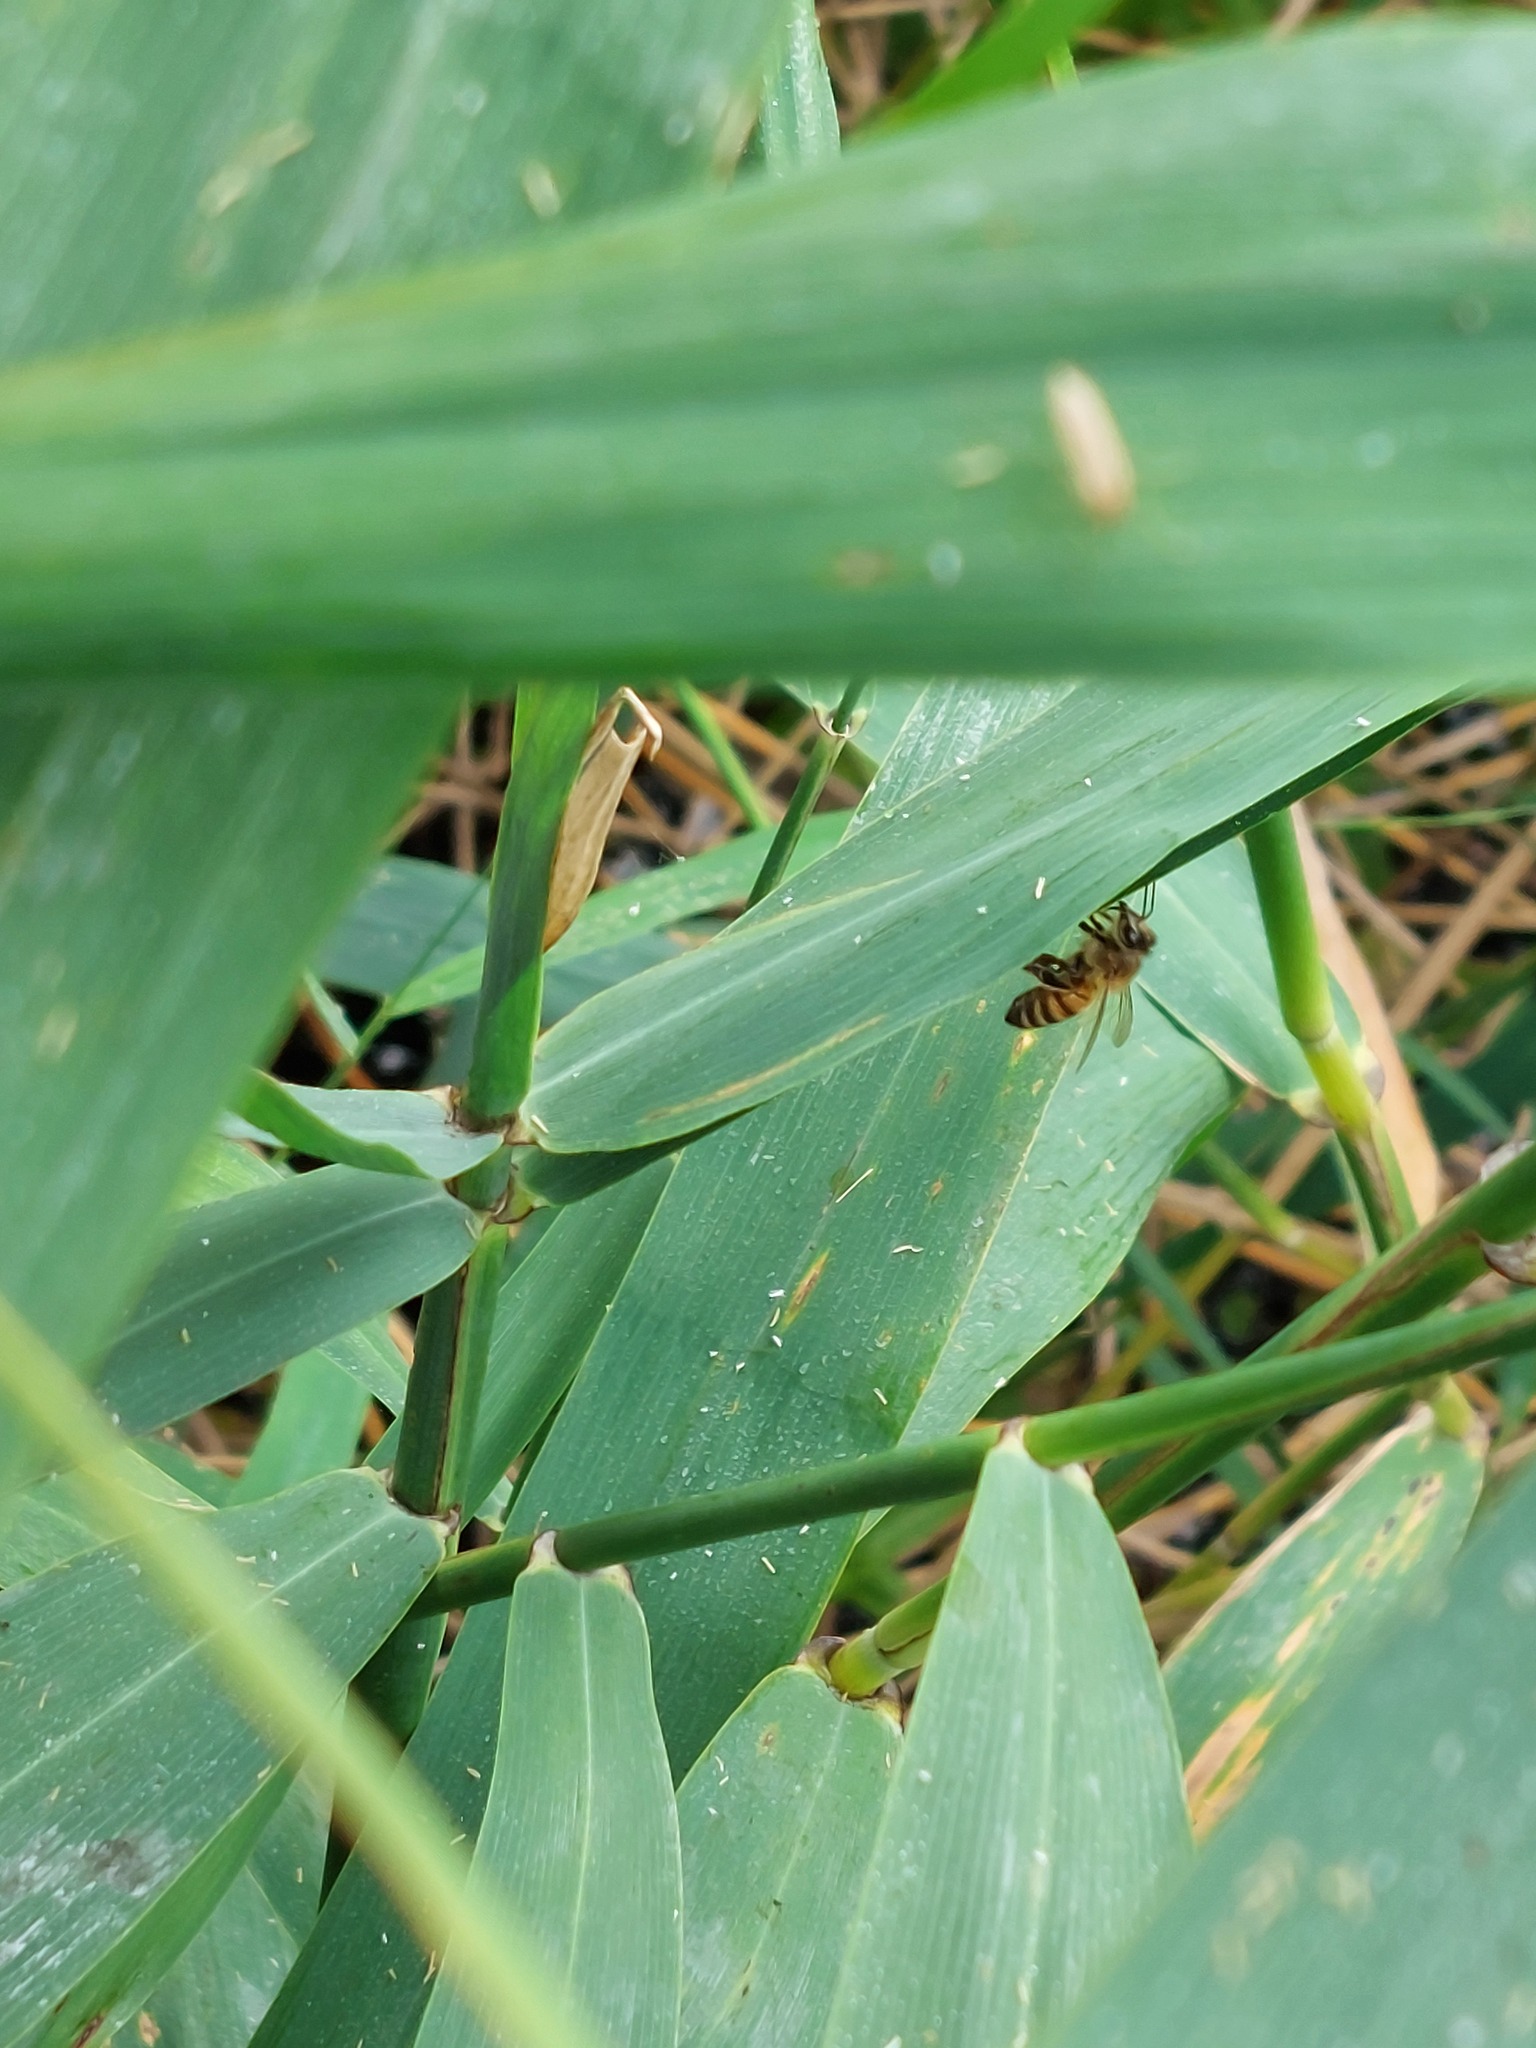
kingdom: Animalia
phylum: Arthropoda
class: Insecta
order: Hymenoptera
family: Apidae
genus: Apis
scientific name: Apis mellifera
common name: Honey bee
